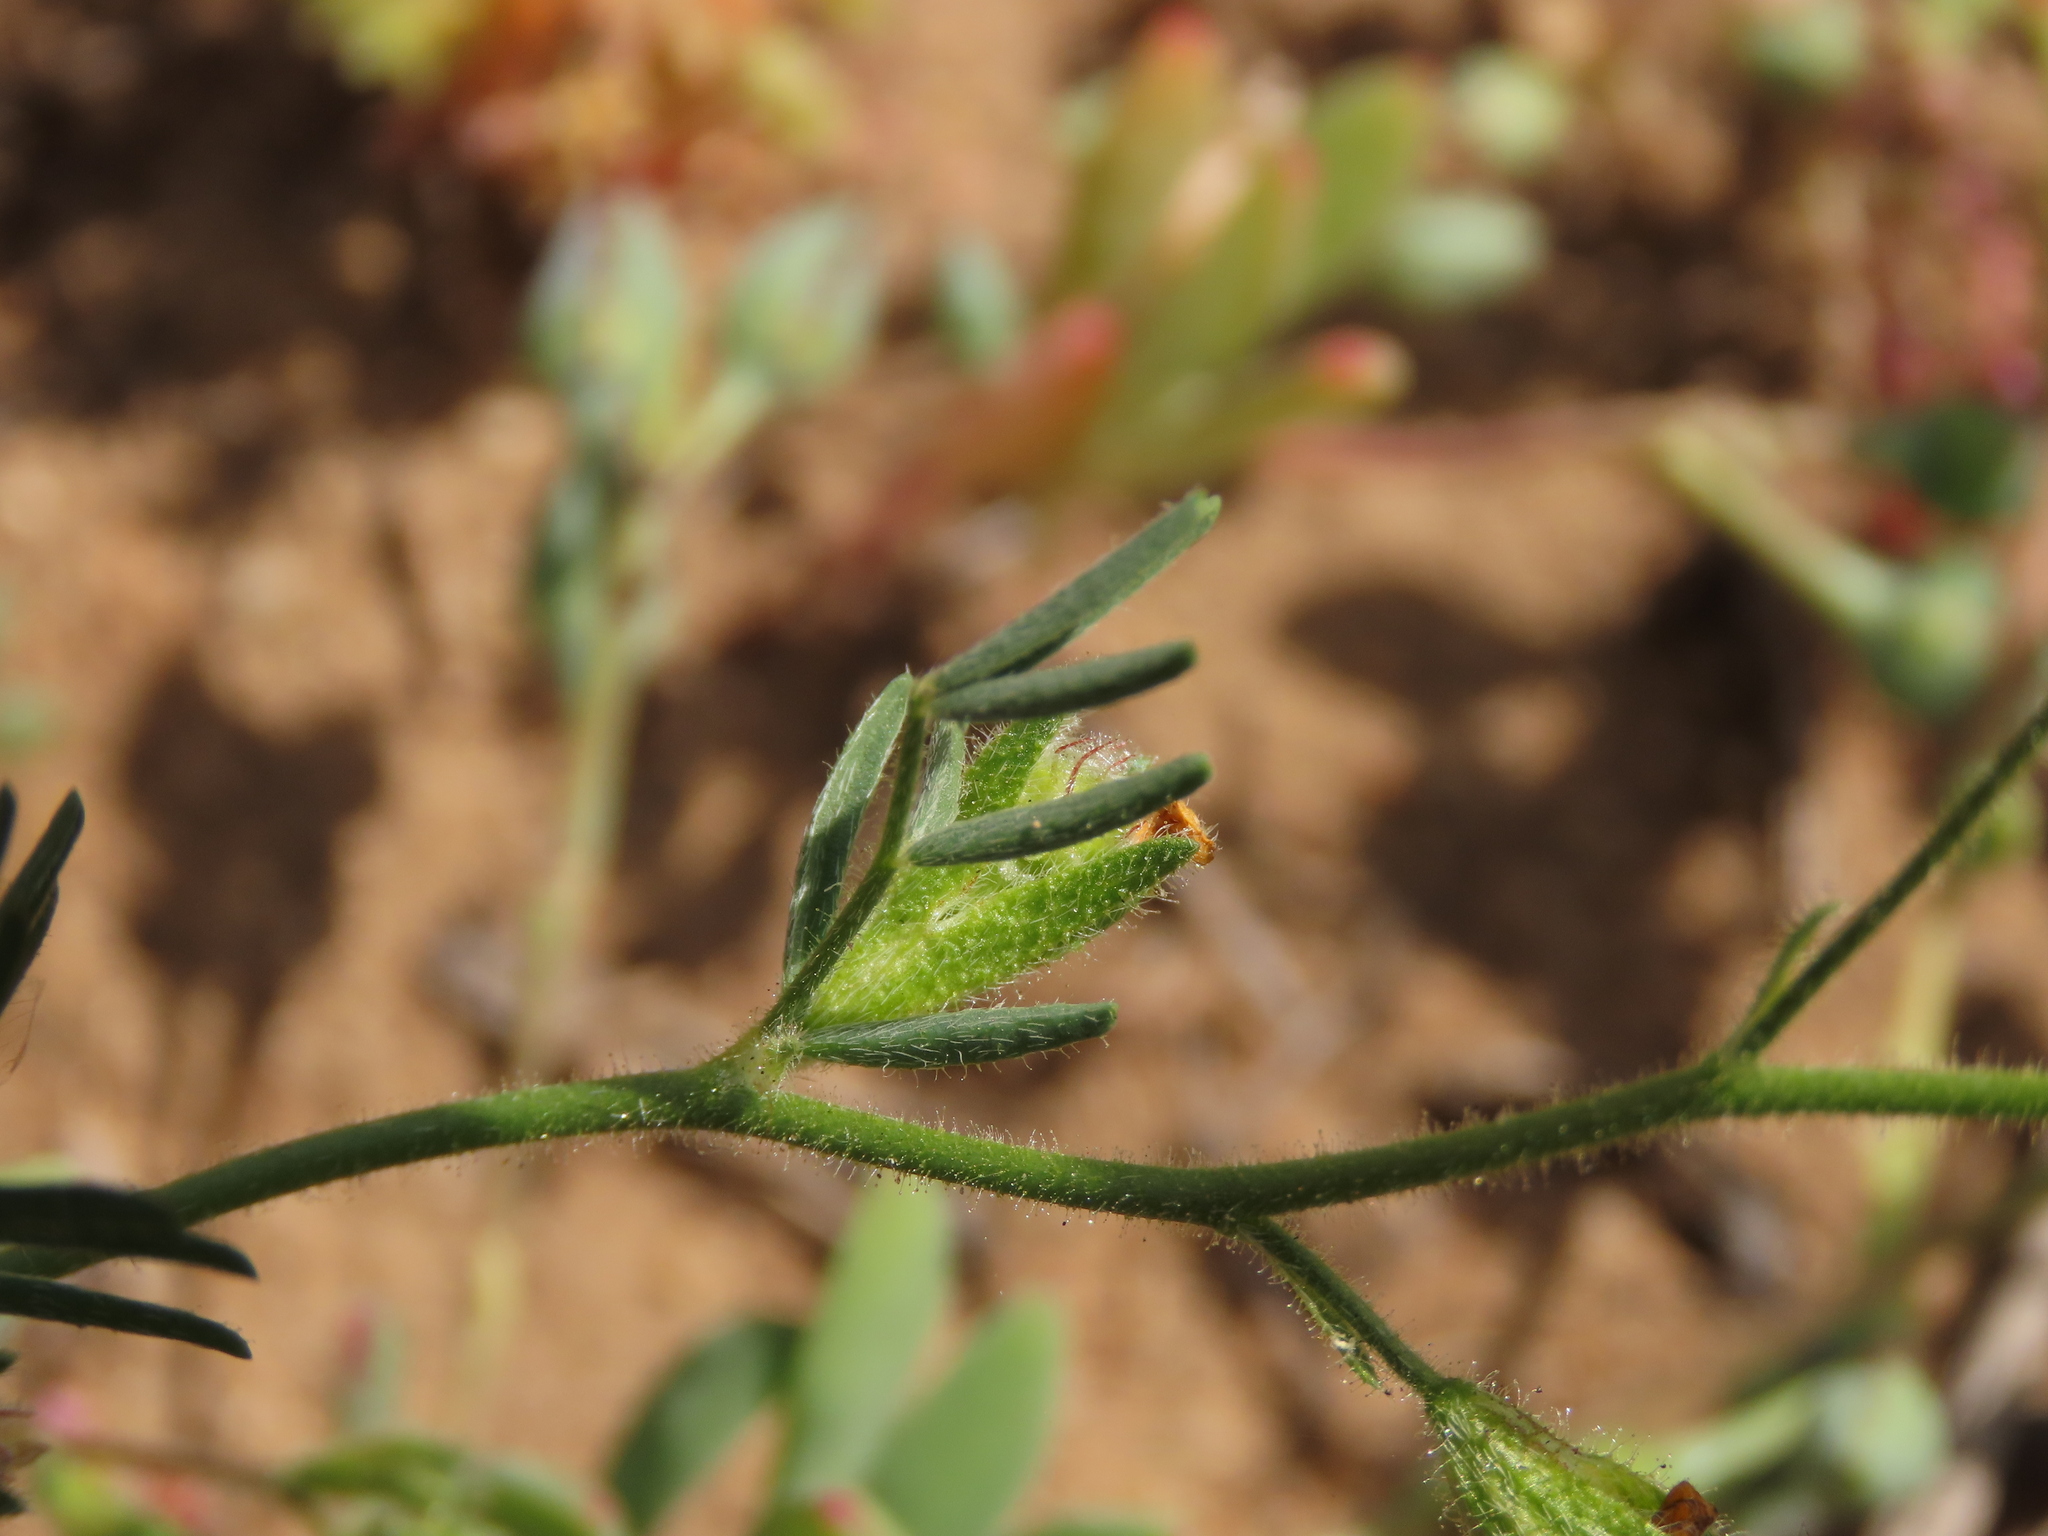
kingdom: Plantae
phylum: Tracheophyta
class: Magnoliopsida
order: Fabales
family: Fabaceae
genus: Adesmia
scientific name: Adesmia tenella
